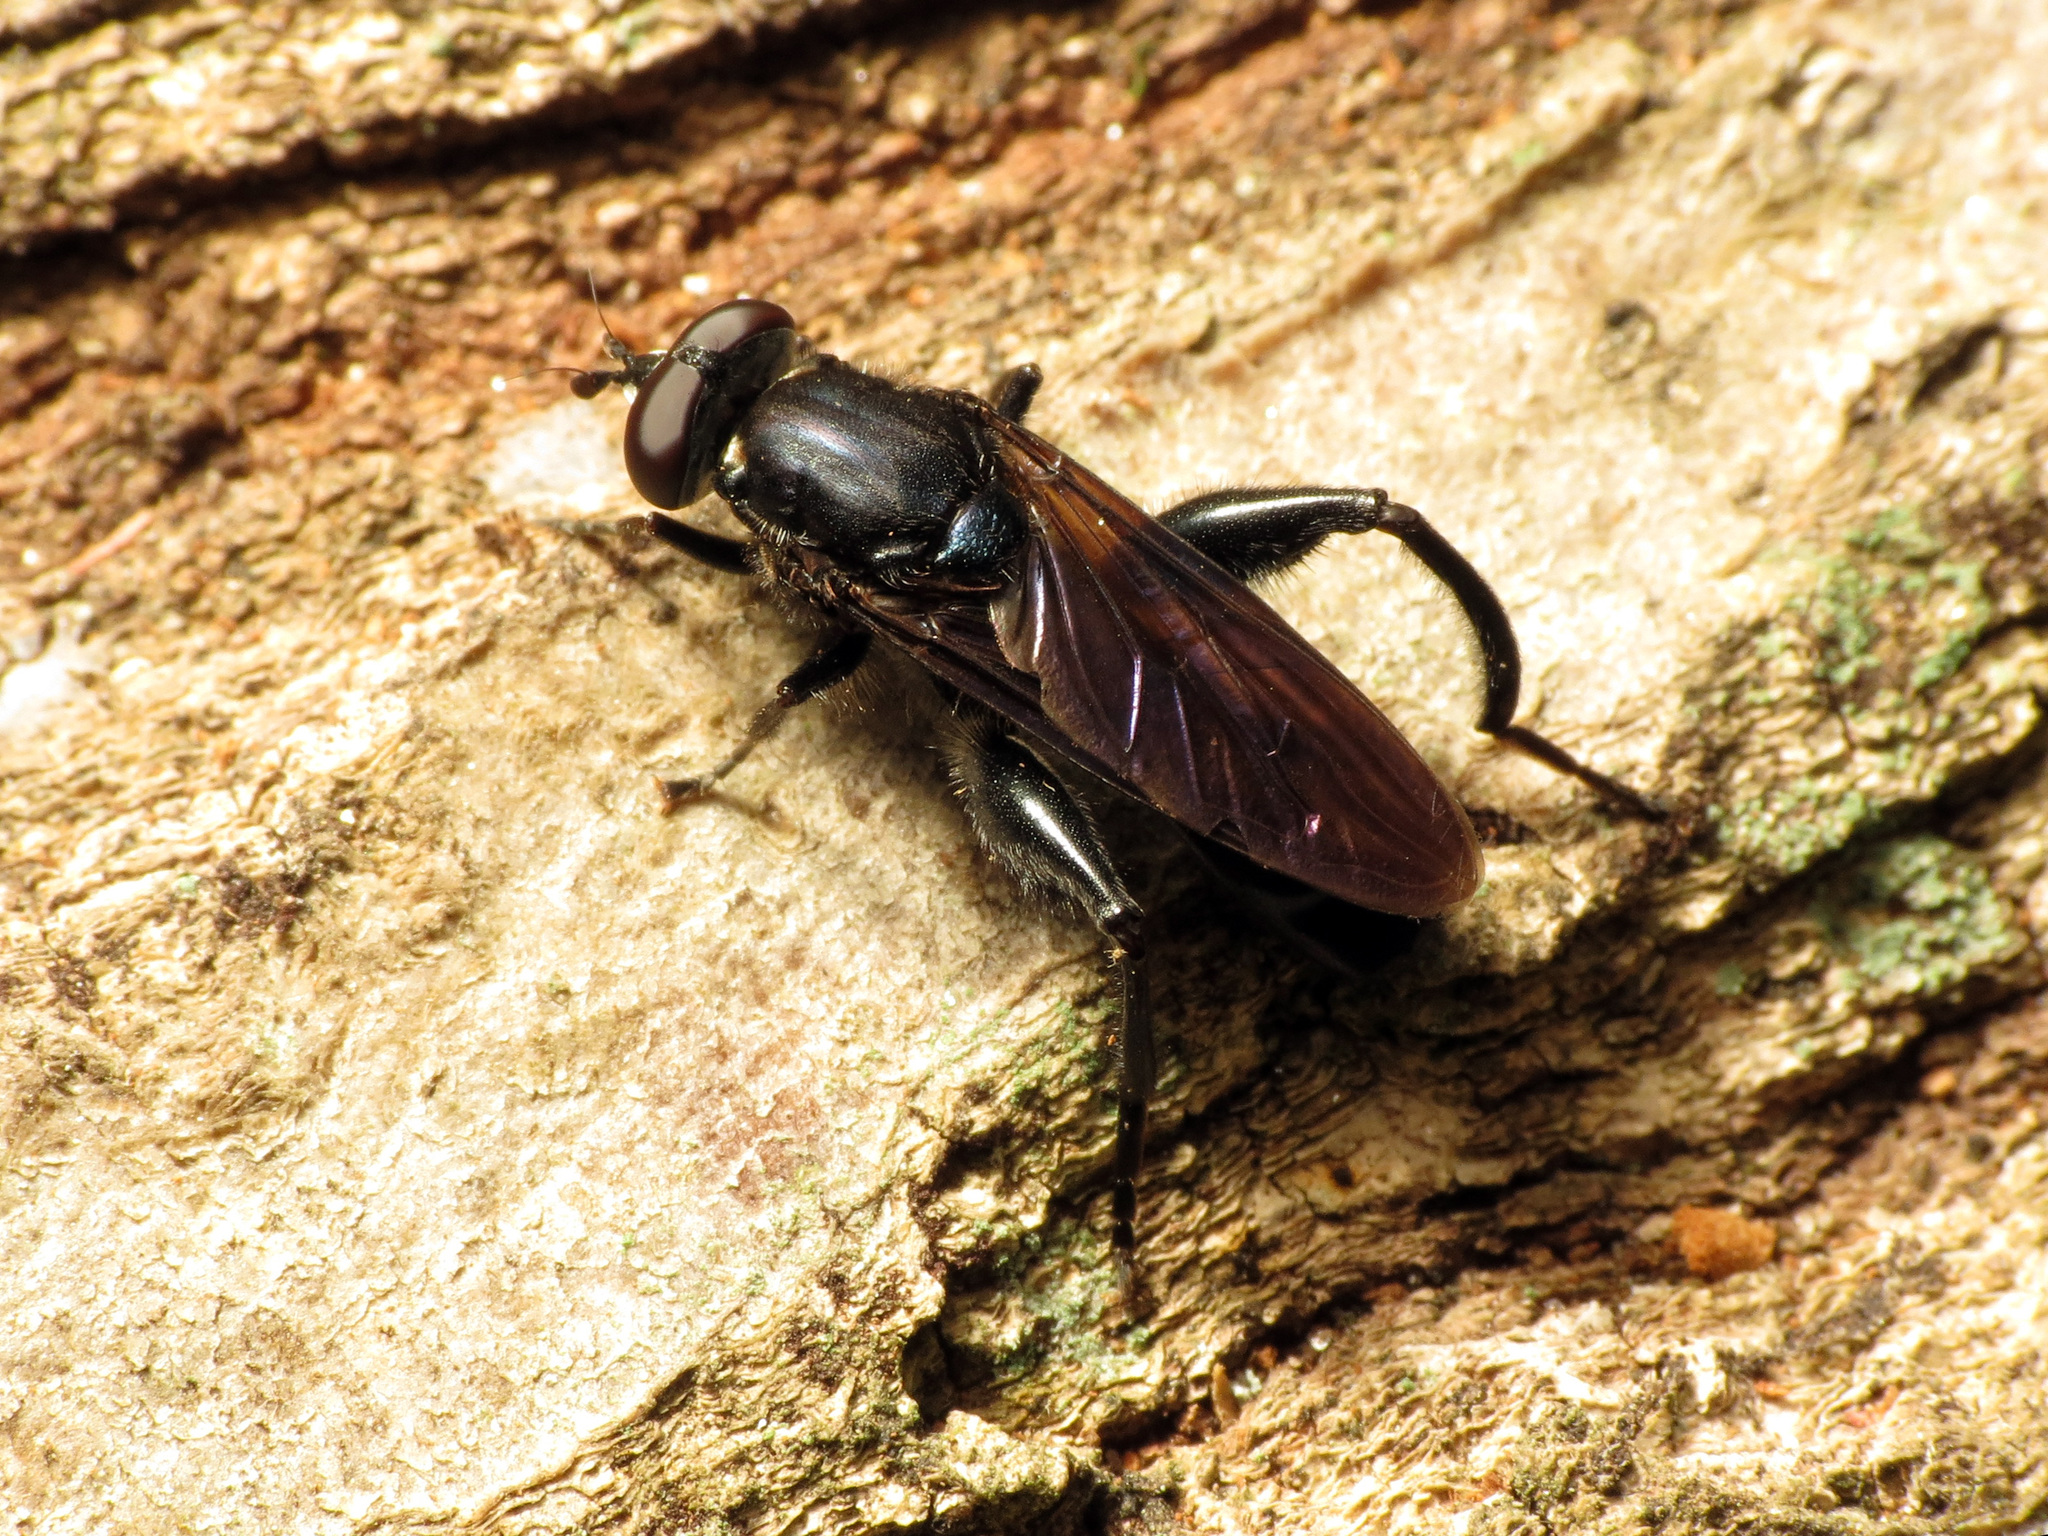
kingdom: Animalia
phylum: Arthropoda
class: Insecta
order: Diptera
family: Syrphidae
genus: Chalcosyrphus
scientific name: Chalcosyrphus chalybeus
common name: Violet leafwalker
